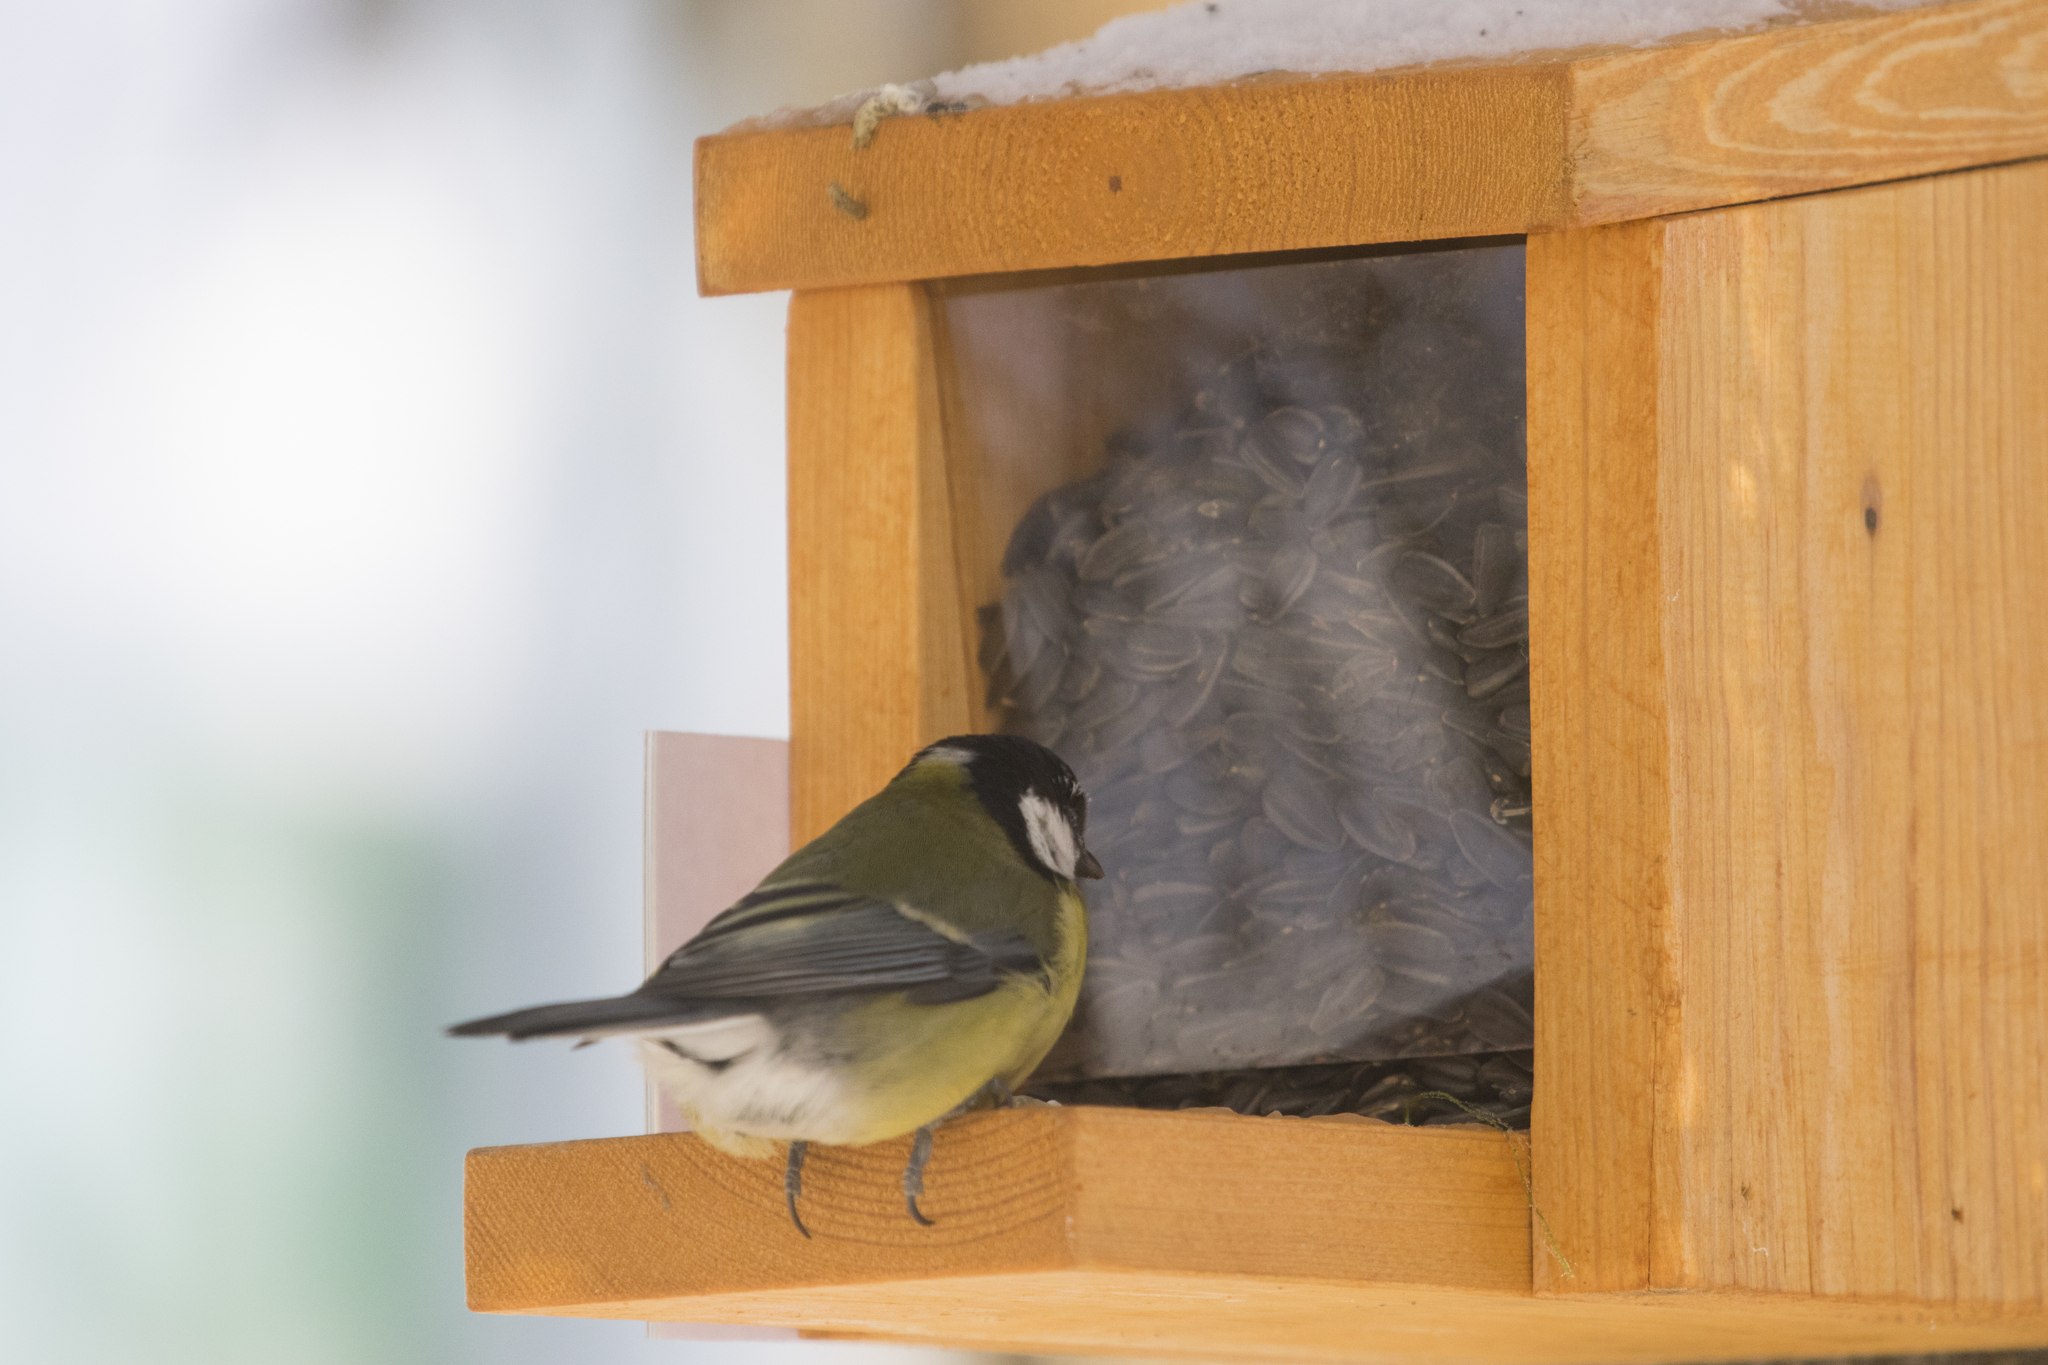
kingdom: Animalia
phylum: Chordata
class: Aves
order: Passeriformes
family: Paridae
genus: Parus
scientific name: Parus major
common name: Great tit
